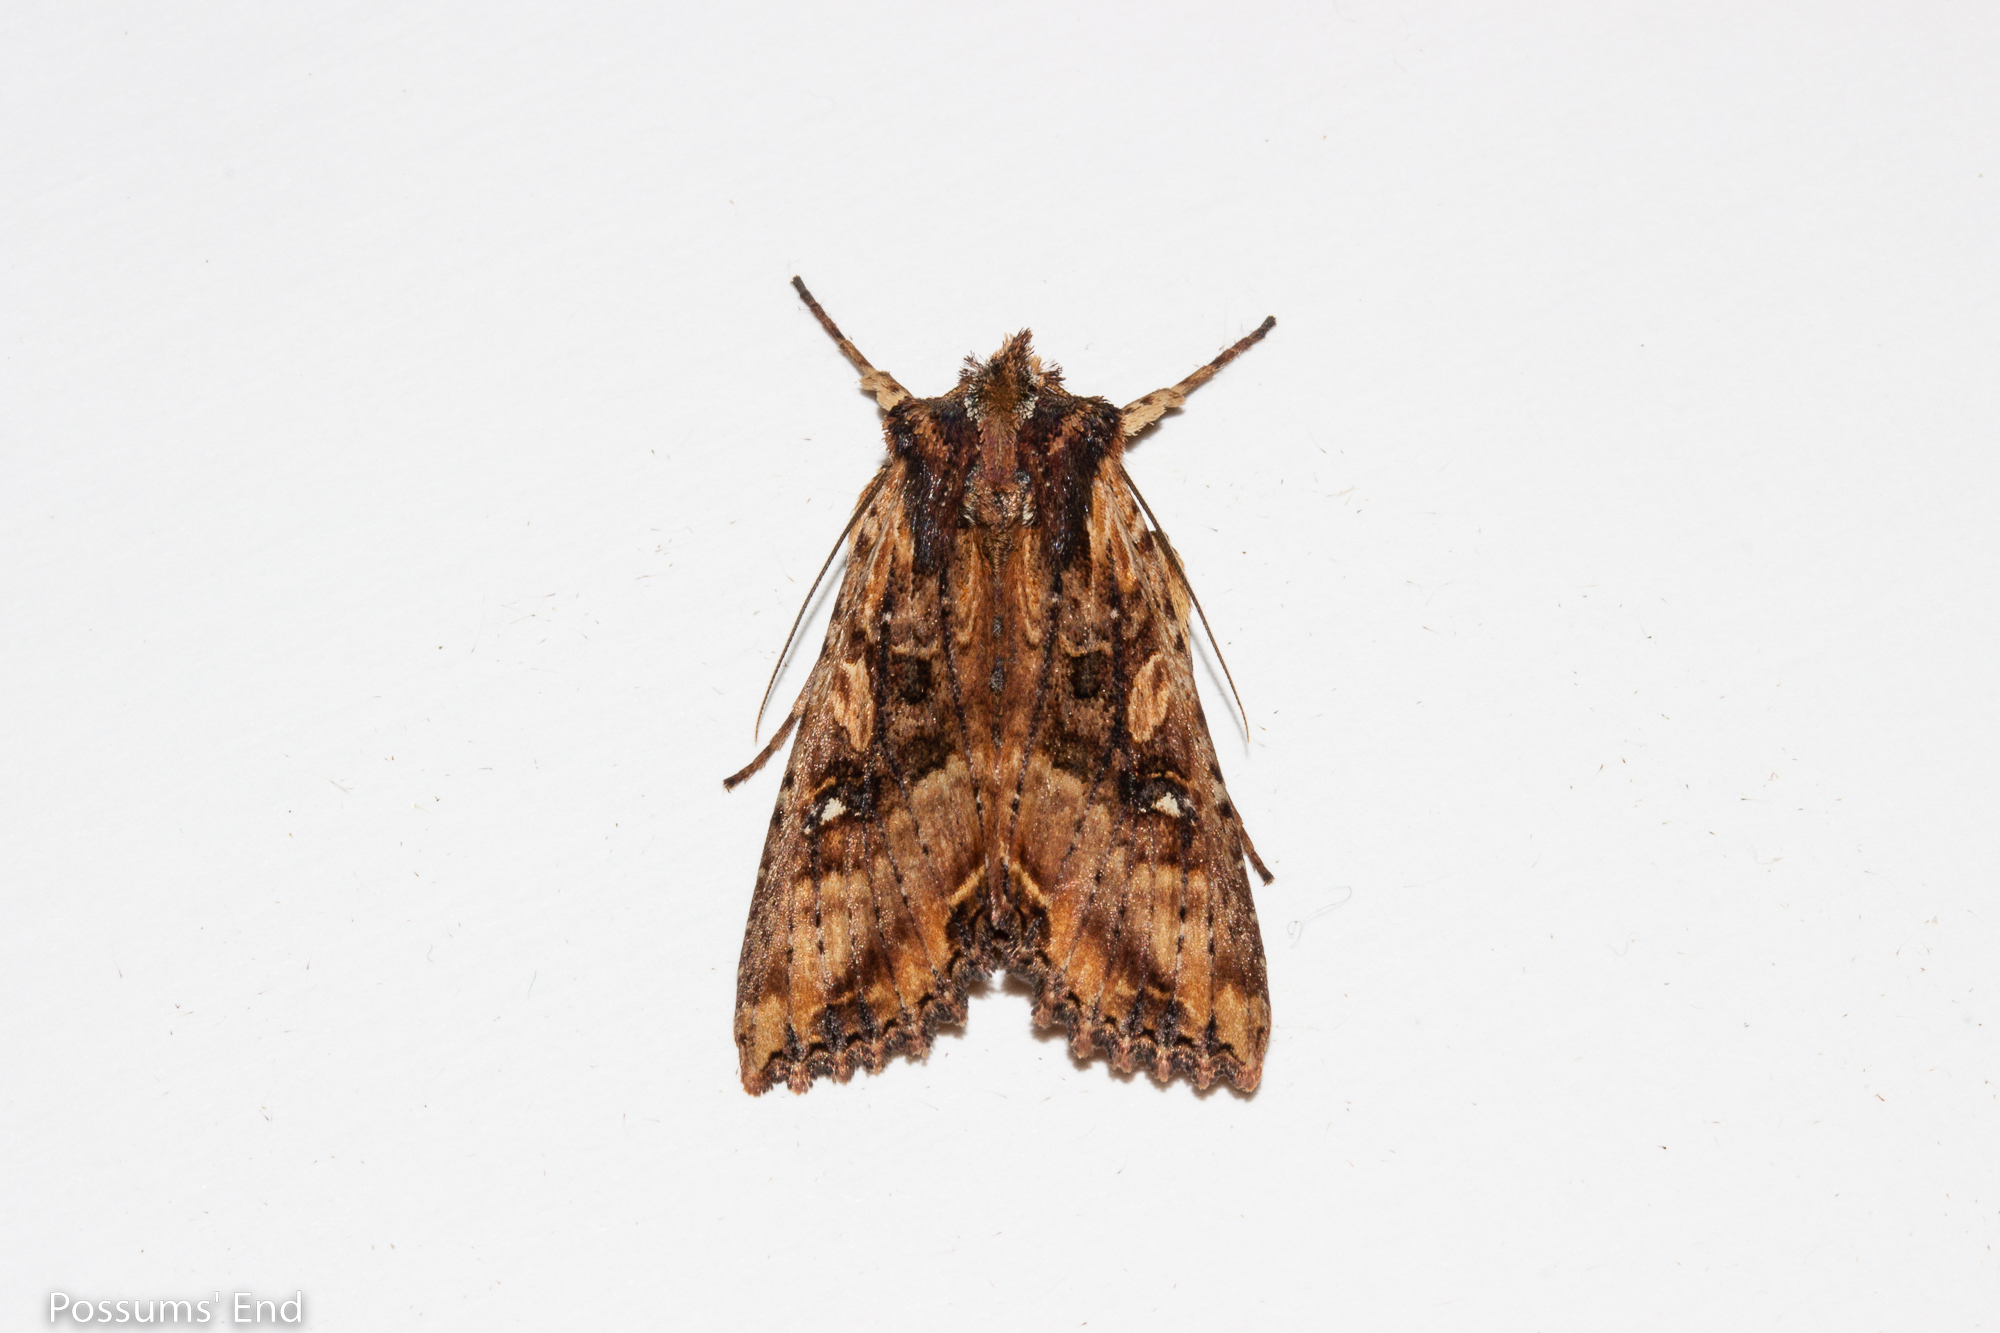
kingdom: Animalia
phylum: Arthropoda
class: Insecta
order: Lepidoptera
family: Noctuidae
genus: Meterana
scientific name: Meterana stipata
